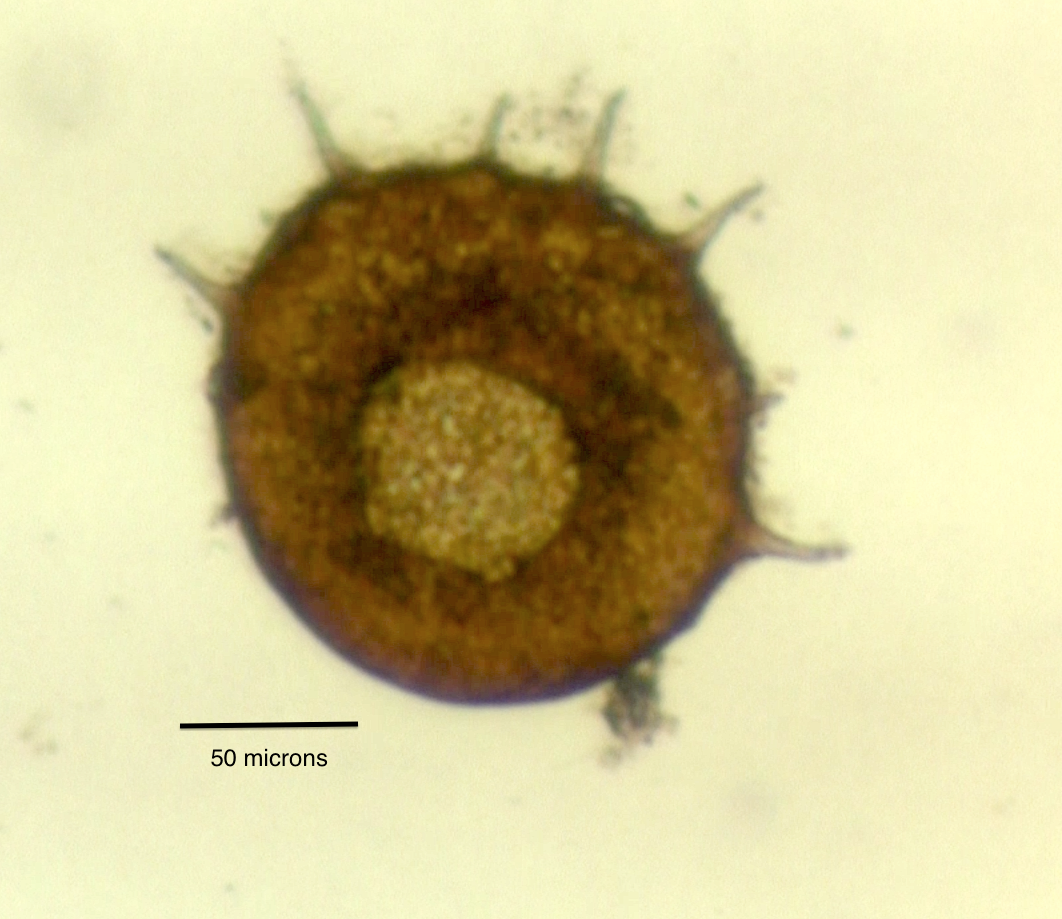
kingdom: Protozoa
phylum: Amoebozoa
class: Lobosa
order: Arcellinida
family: Centropyxidae
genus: Centropyxis
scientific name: Centropyxis
